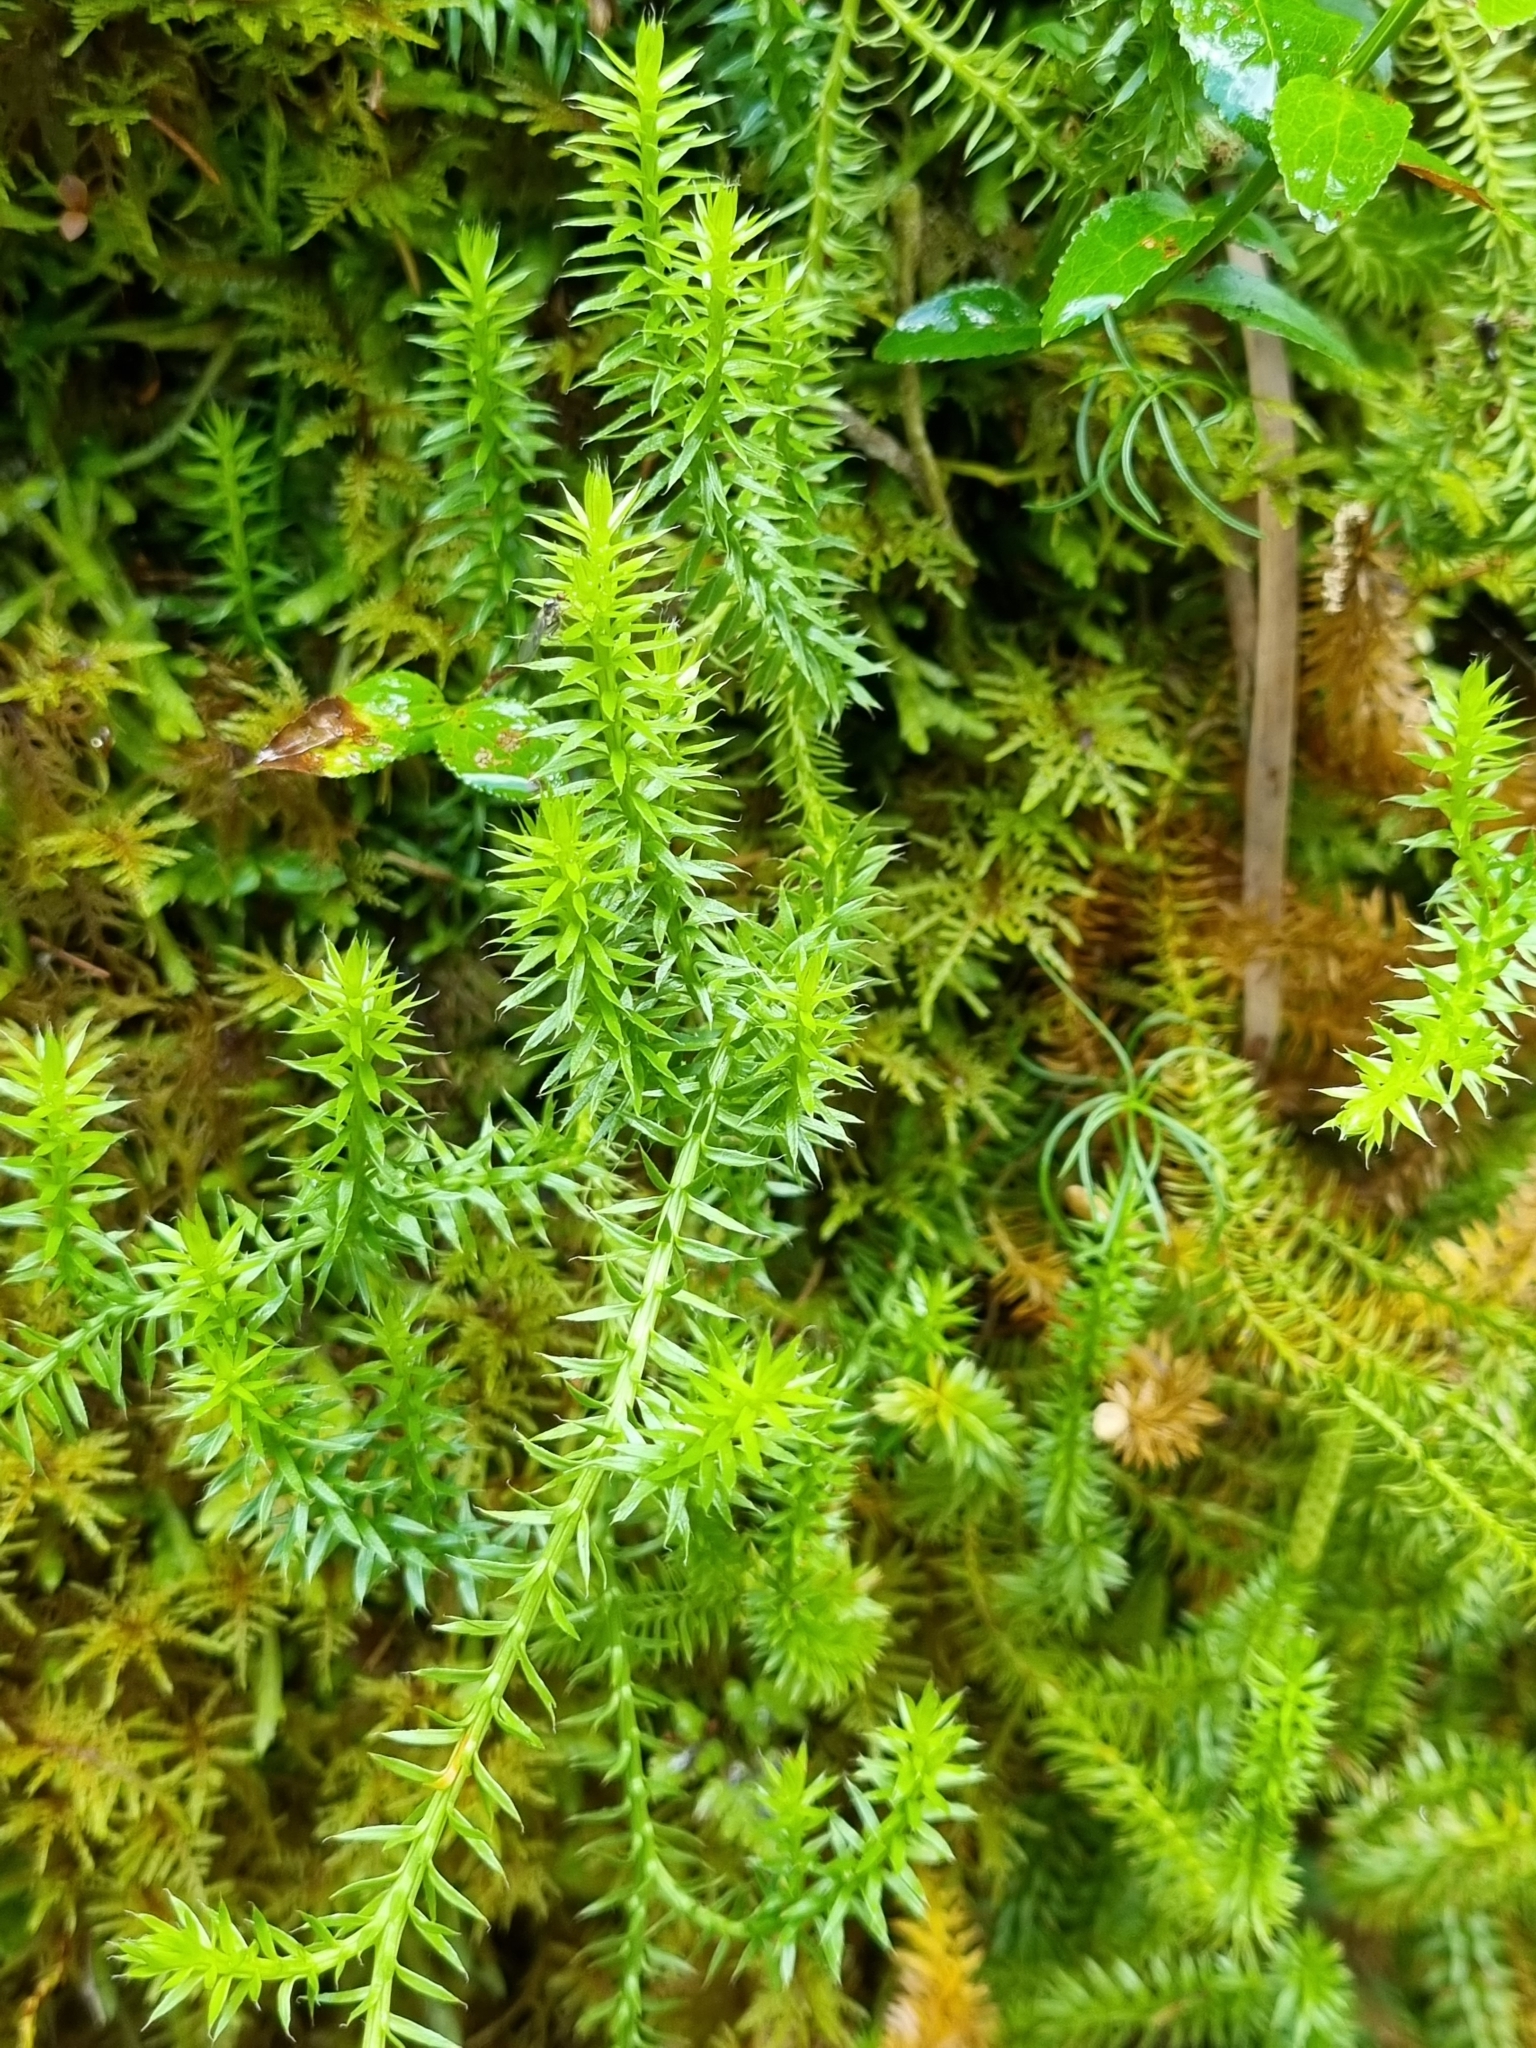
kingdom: Plantae
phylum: Tracheophyta
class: Lycopodiopsida
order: Lycopodiales
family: Lycopodiaceae
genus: Spinulum
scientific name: Spinulum annotinum
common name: Interrupted club-moss
